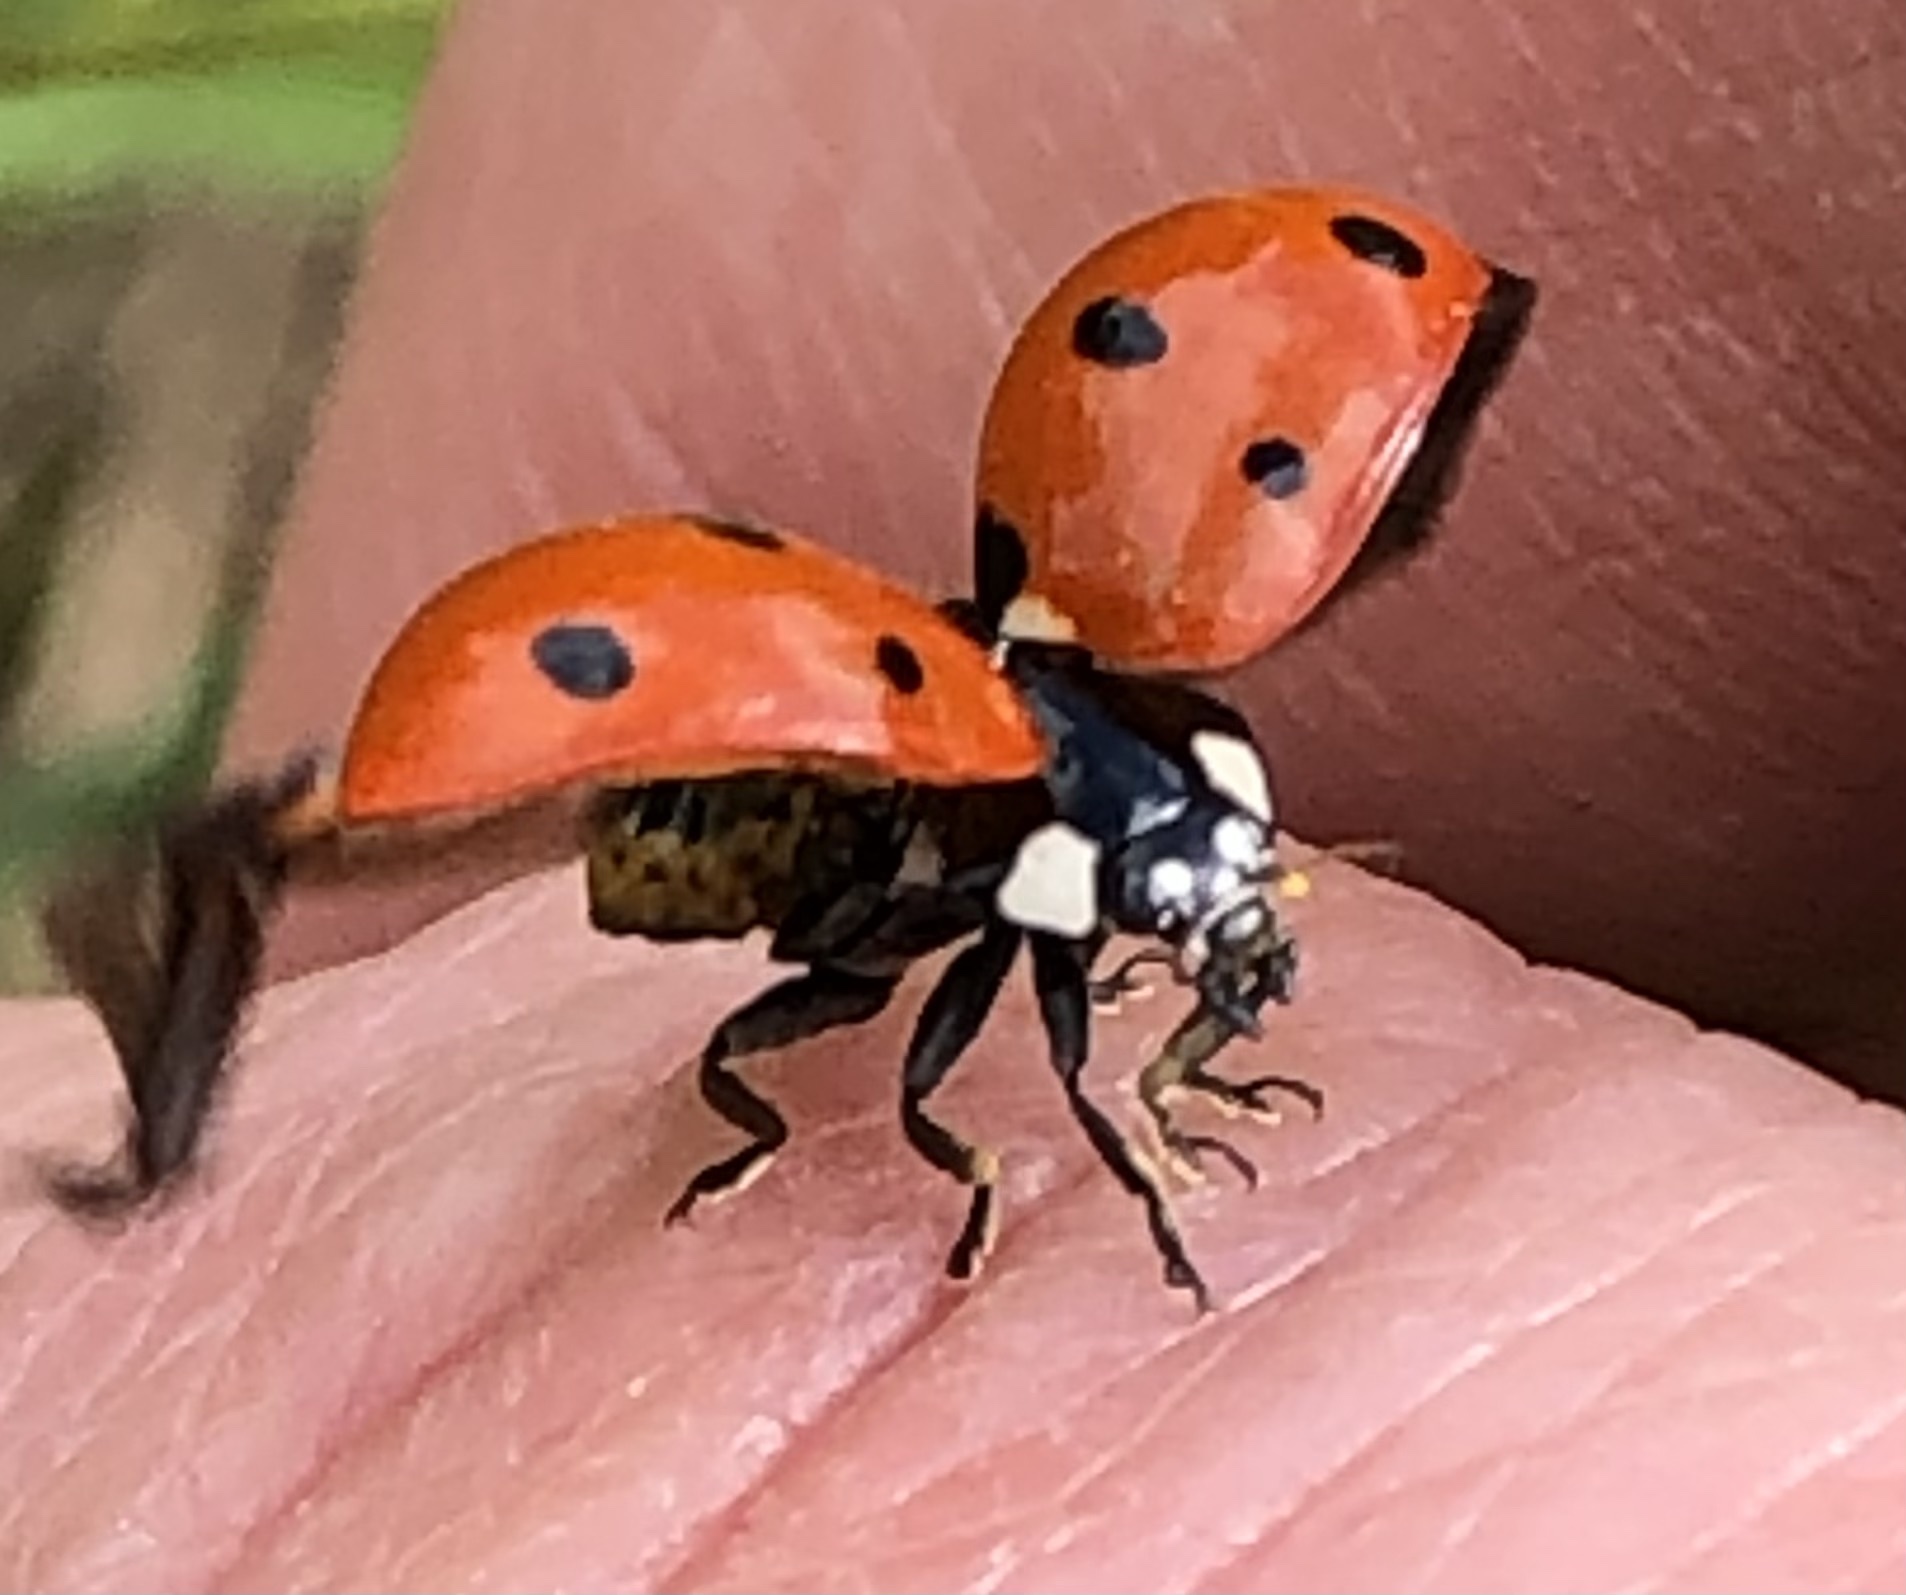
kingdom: Animalia
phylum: Arthropoda
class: Insecta
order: Coleoptera
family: Coccinellidae
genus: Coccinella
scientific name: Coccinella septempunctata
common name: Sevenspotted lady beetle
